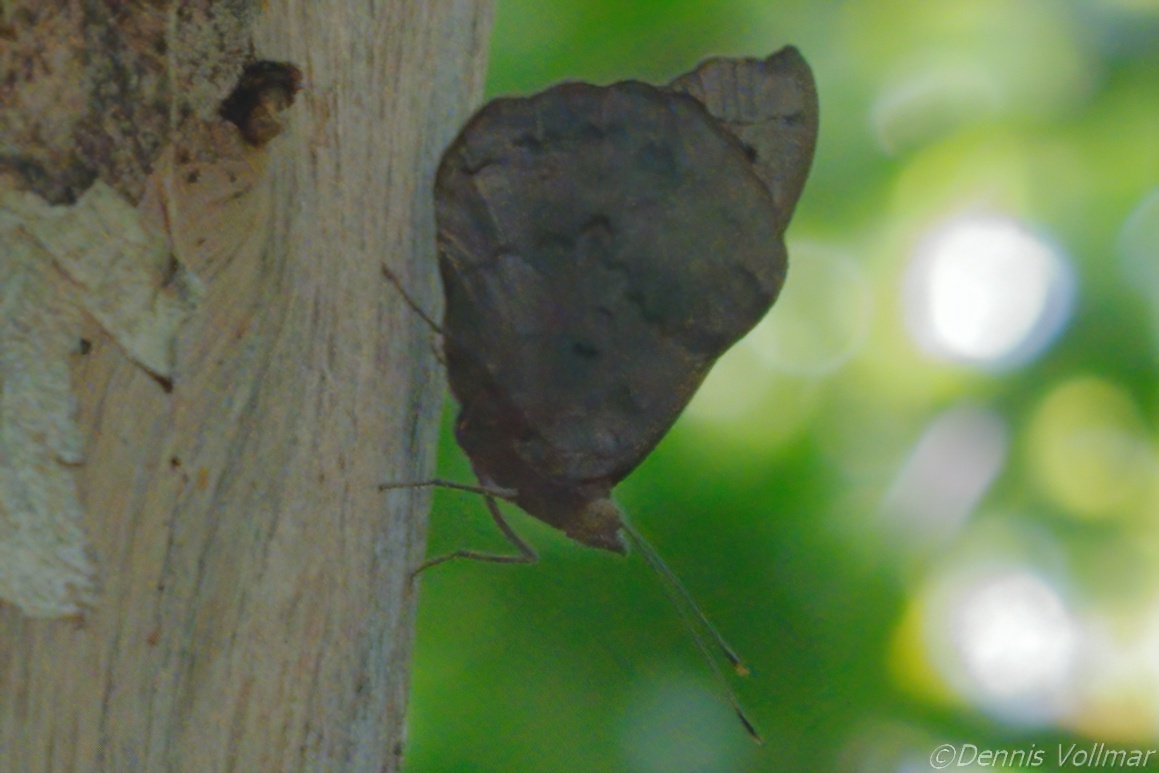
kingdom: Animalia
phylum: Arthropoda
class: Insecta
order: Lepidoptera
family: Nymphalidae
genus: Eunica
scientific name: Eunica tatila
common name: Florida purplewing
